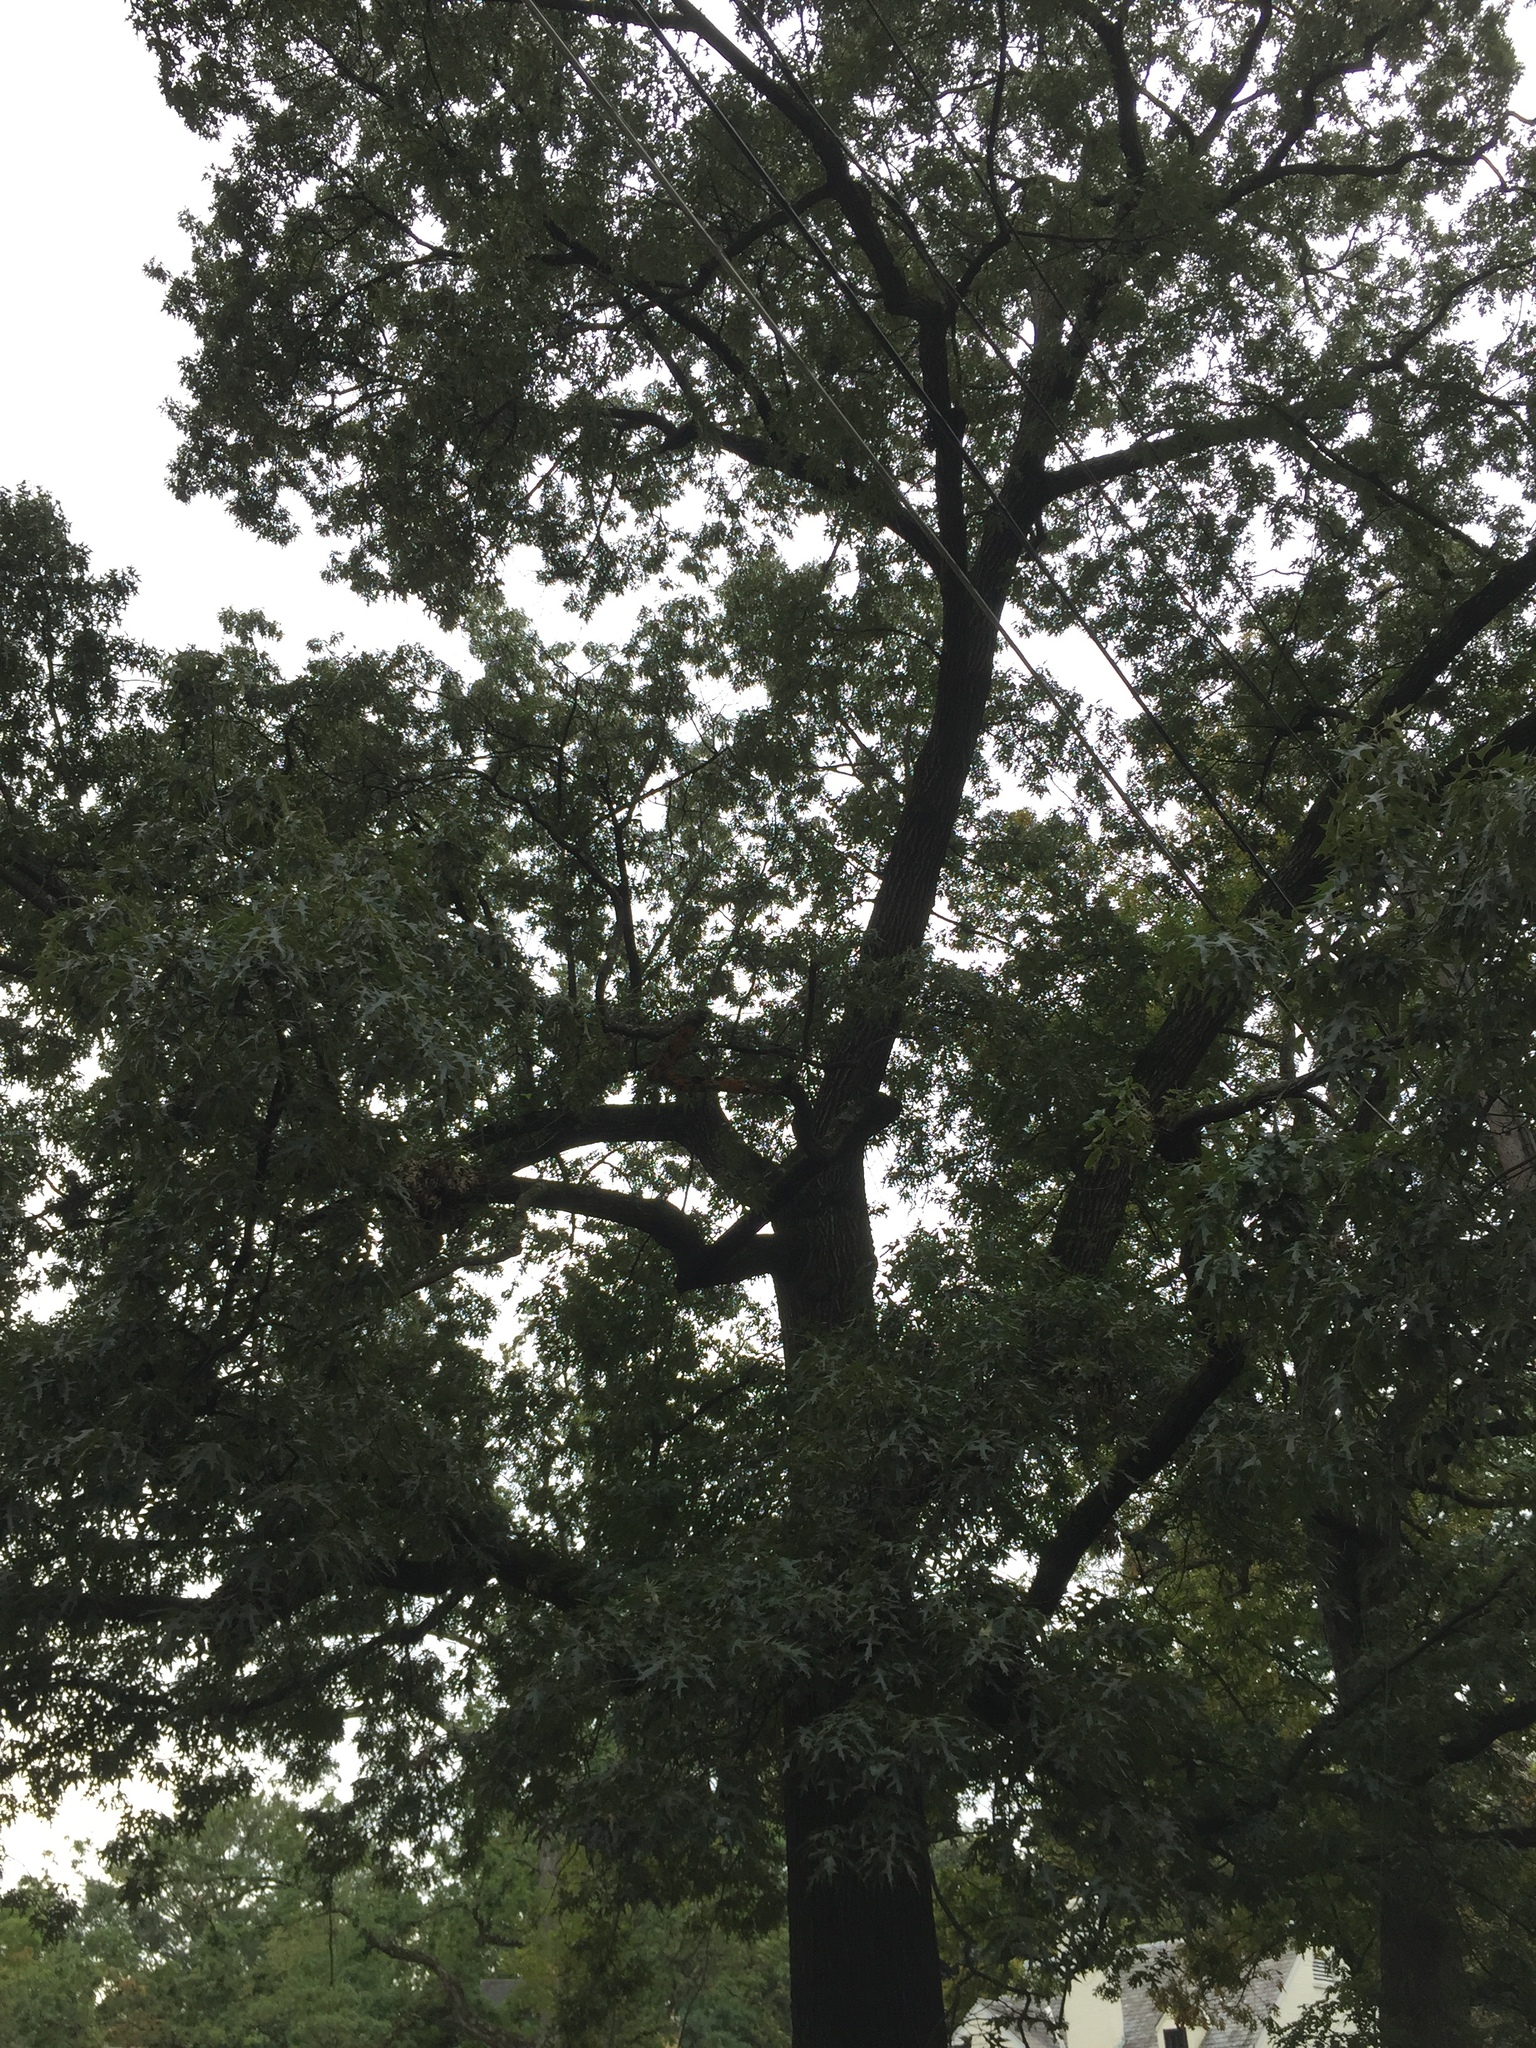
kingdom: Plantae
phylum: Tracheophyta
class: Magnoliopsida
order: Fagales
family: Fagaceae
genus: Quercus
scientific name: Quercus falcata
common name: Southern red oak
